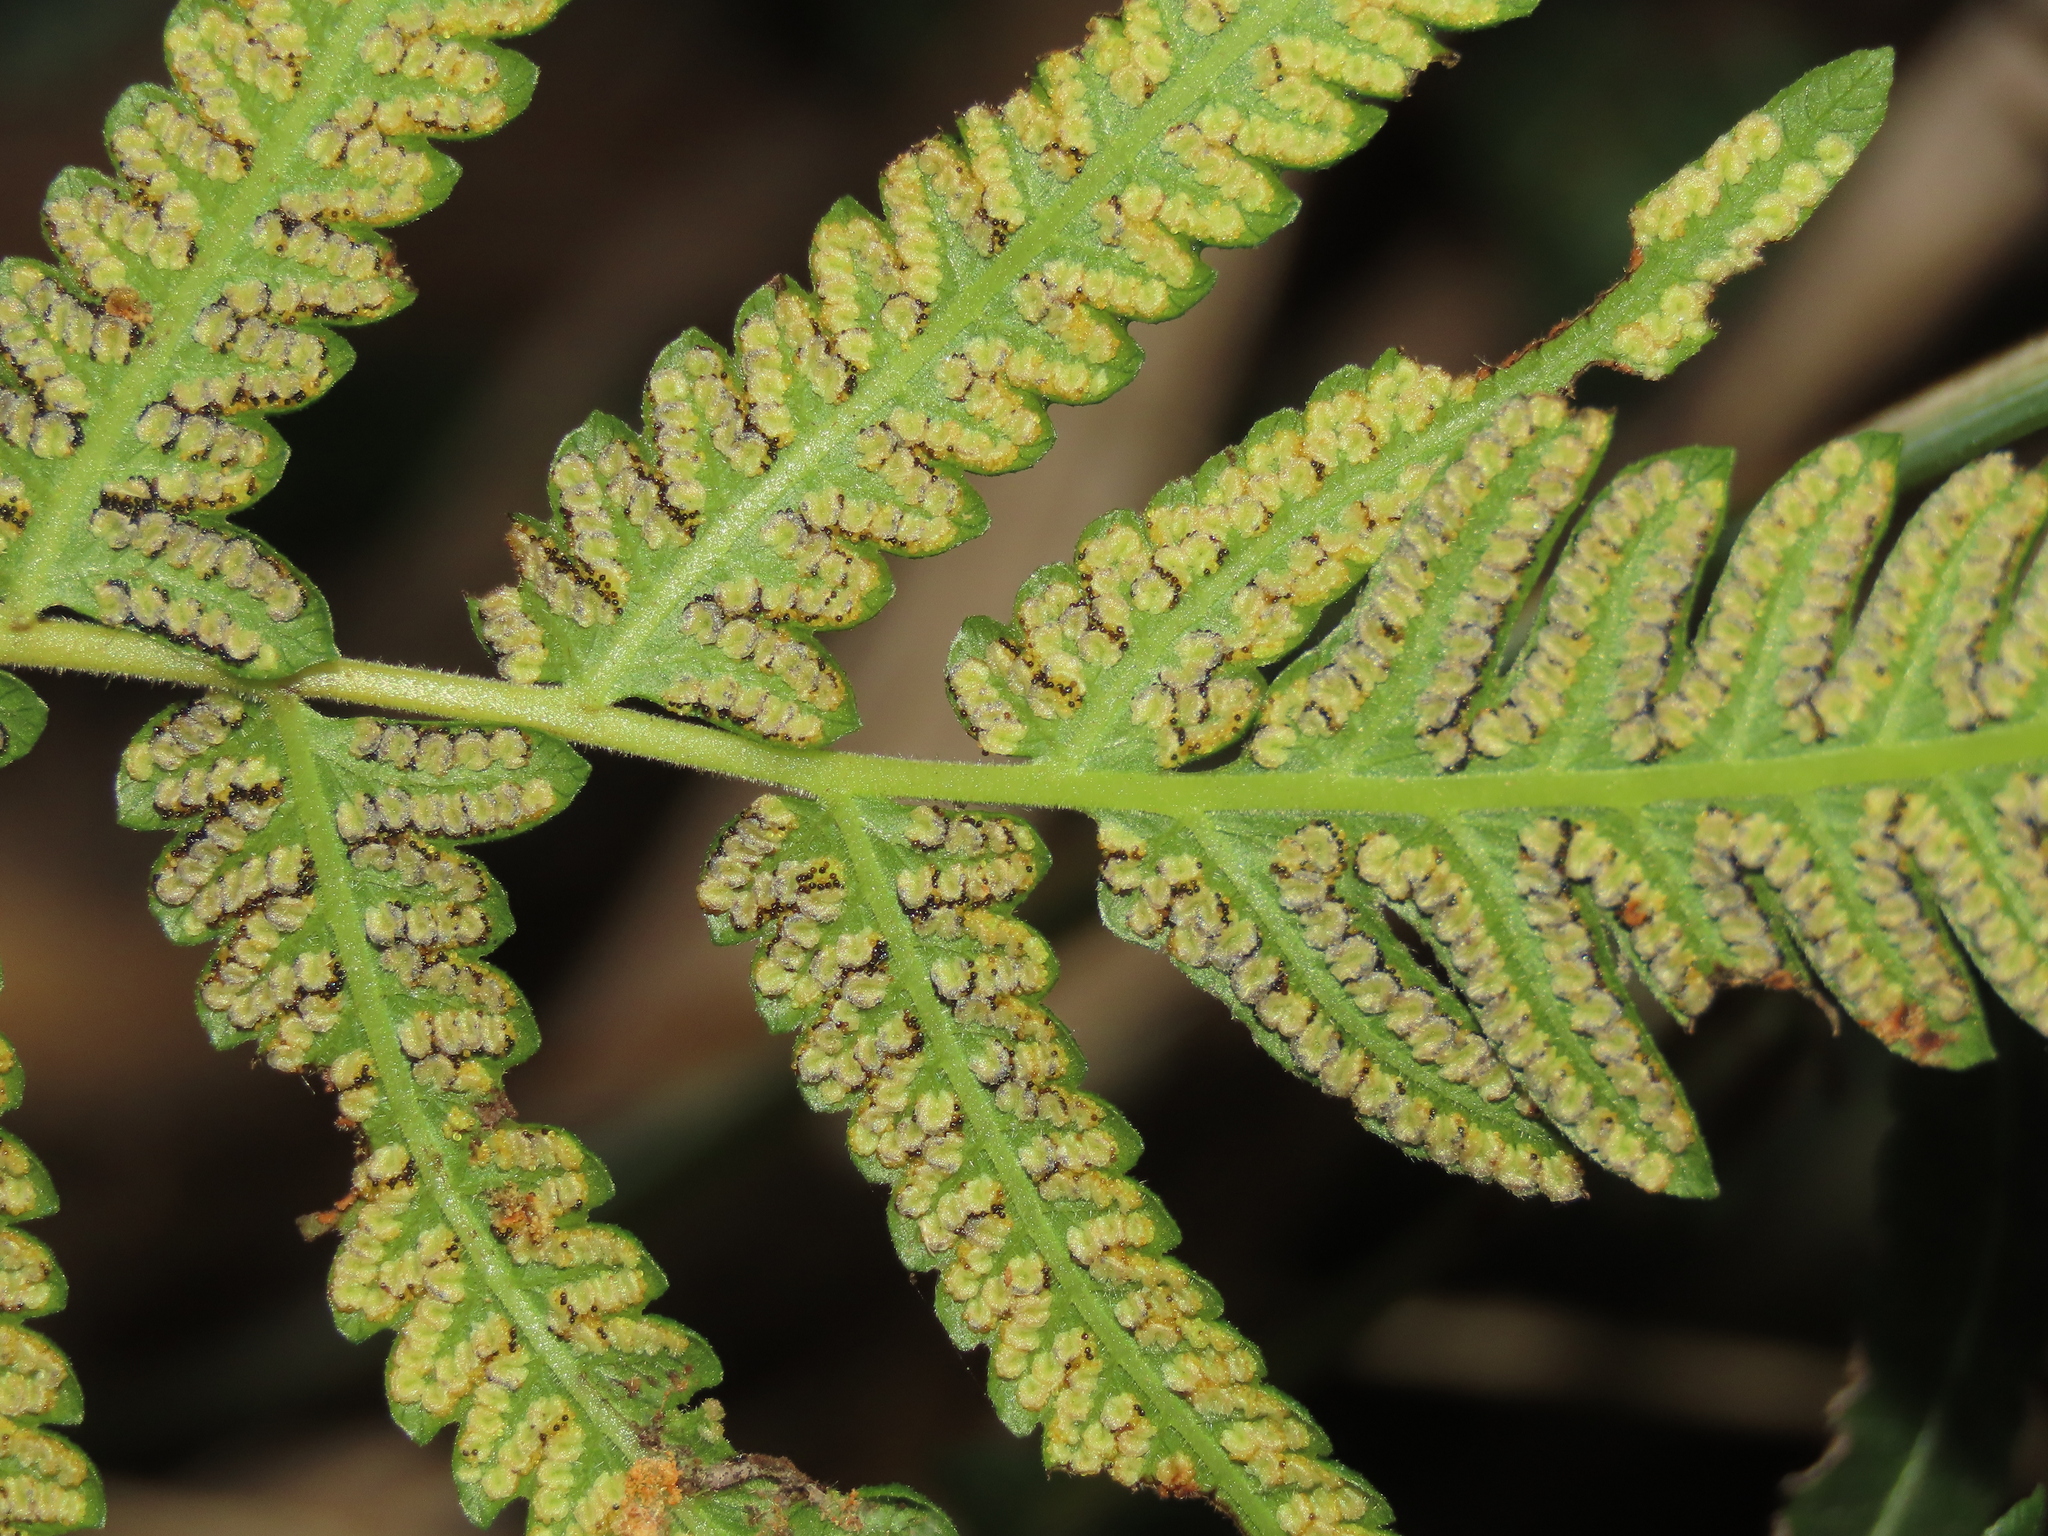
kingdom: Plantae
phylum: Tracheophyta
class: Polypodiopsida
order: Polypodiales
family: Thelypteridaceae
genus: Christella
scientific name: Christella acuminata
